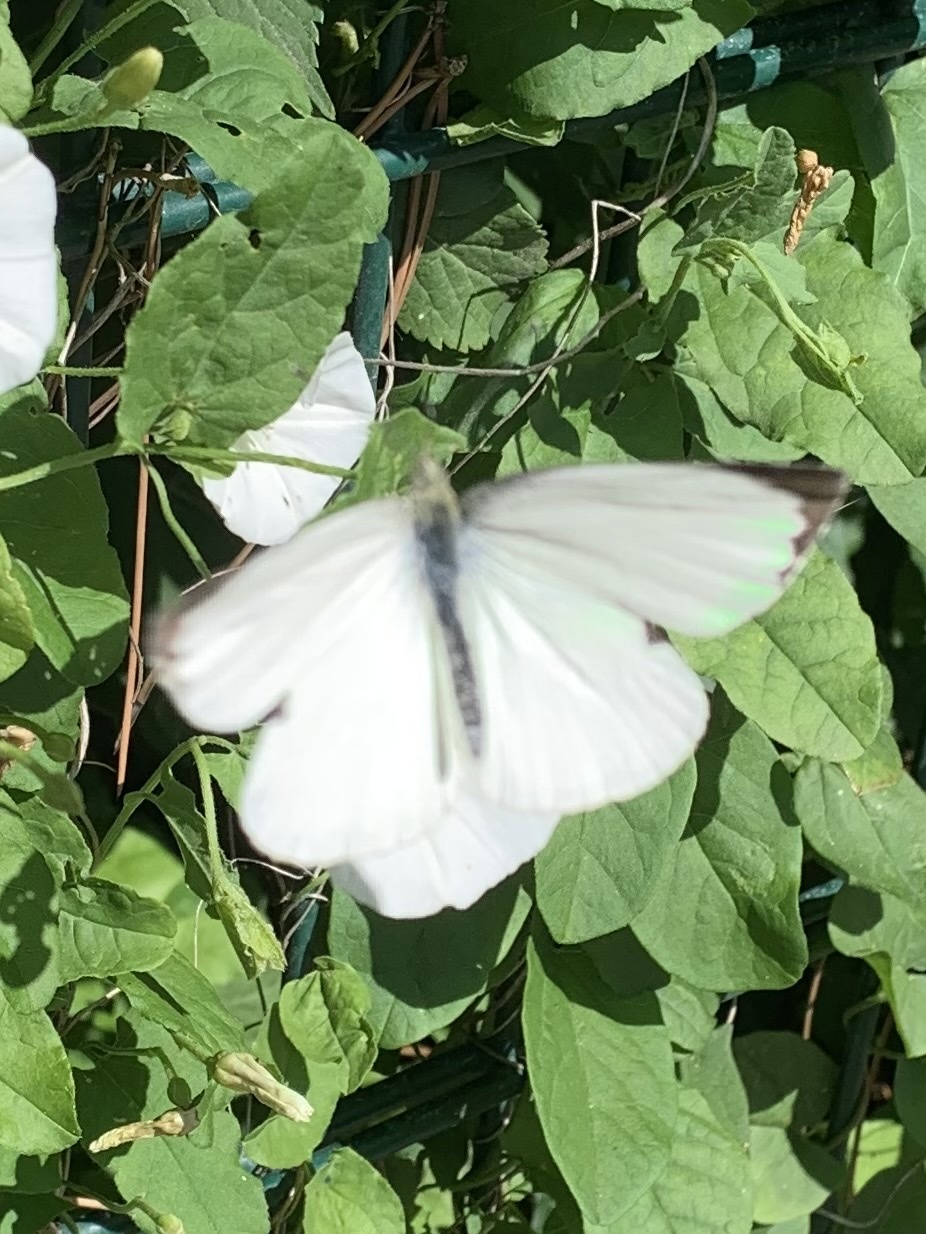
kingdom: Animalia
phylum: Arthropoda
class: Insecta
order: Lepidoptera
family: Pieridae
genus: Pieris
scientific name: Pieris brassicae
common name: Large white
